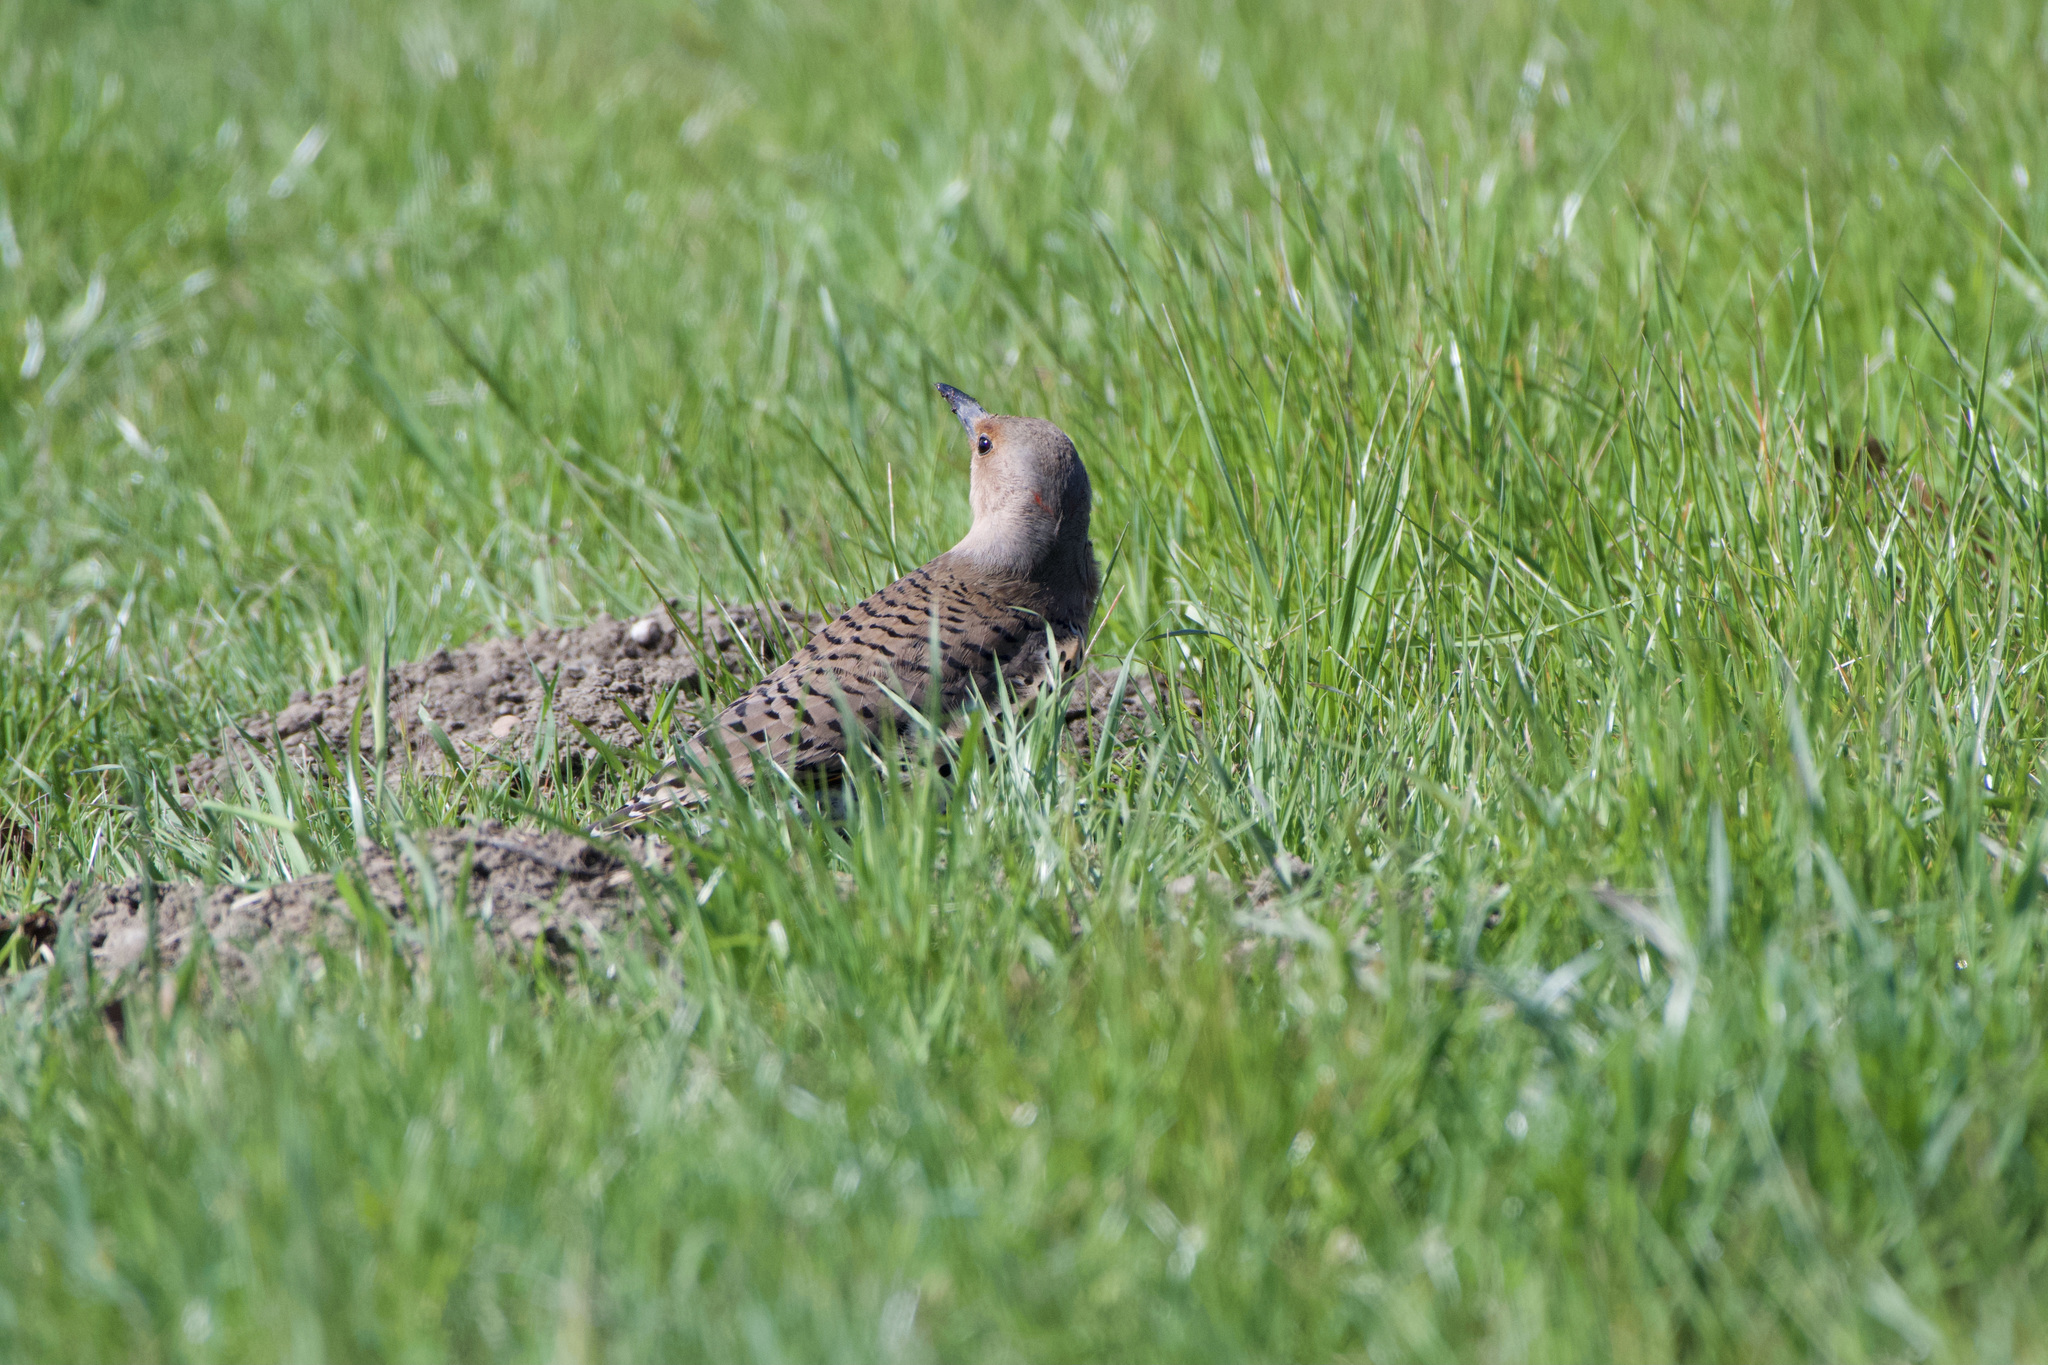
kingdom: Animalia
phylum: Chordata
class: Aves
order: Piciformes
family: Picidae
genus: Colaptes
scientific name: Colaptes
